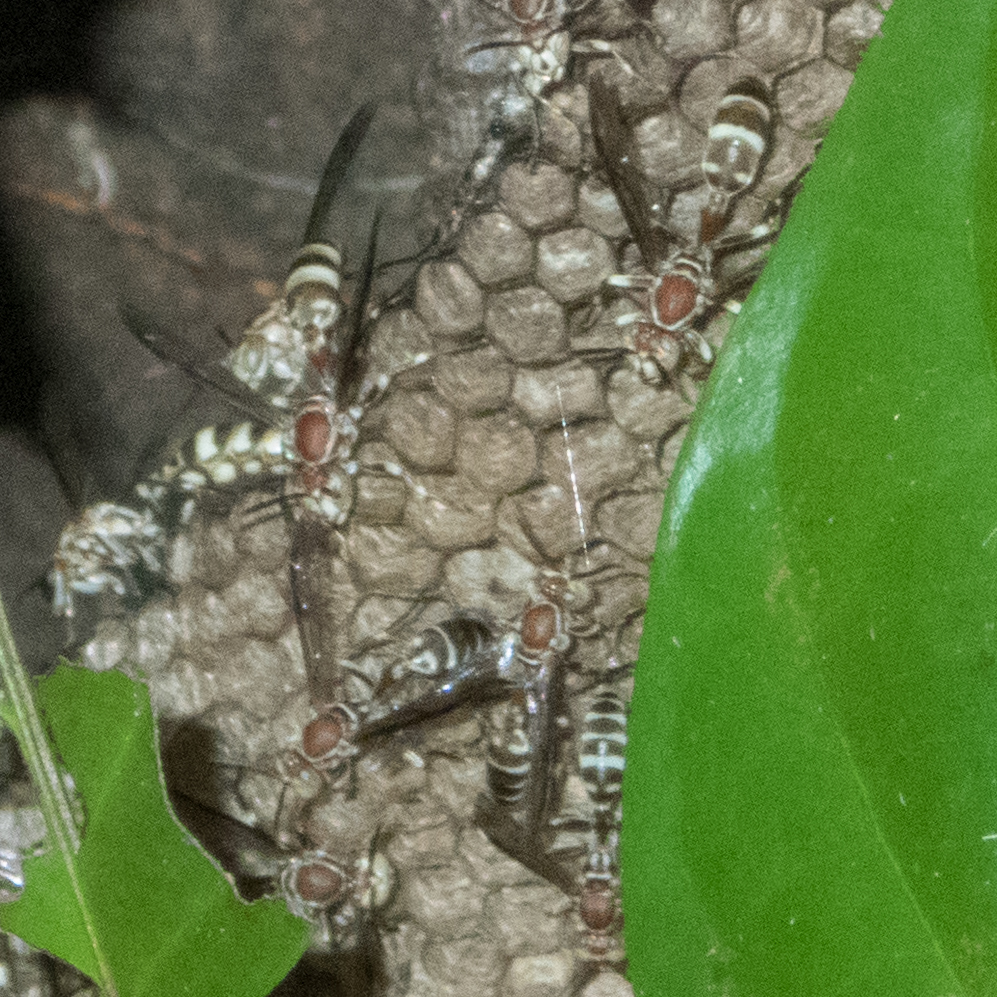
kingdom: Animalia
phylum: Arthropoda
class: Insecta
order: Hymenoptera
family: Vespidae
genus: Parapolybia
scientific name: Parapolybia nodosa
